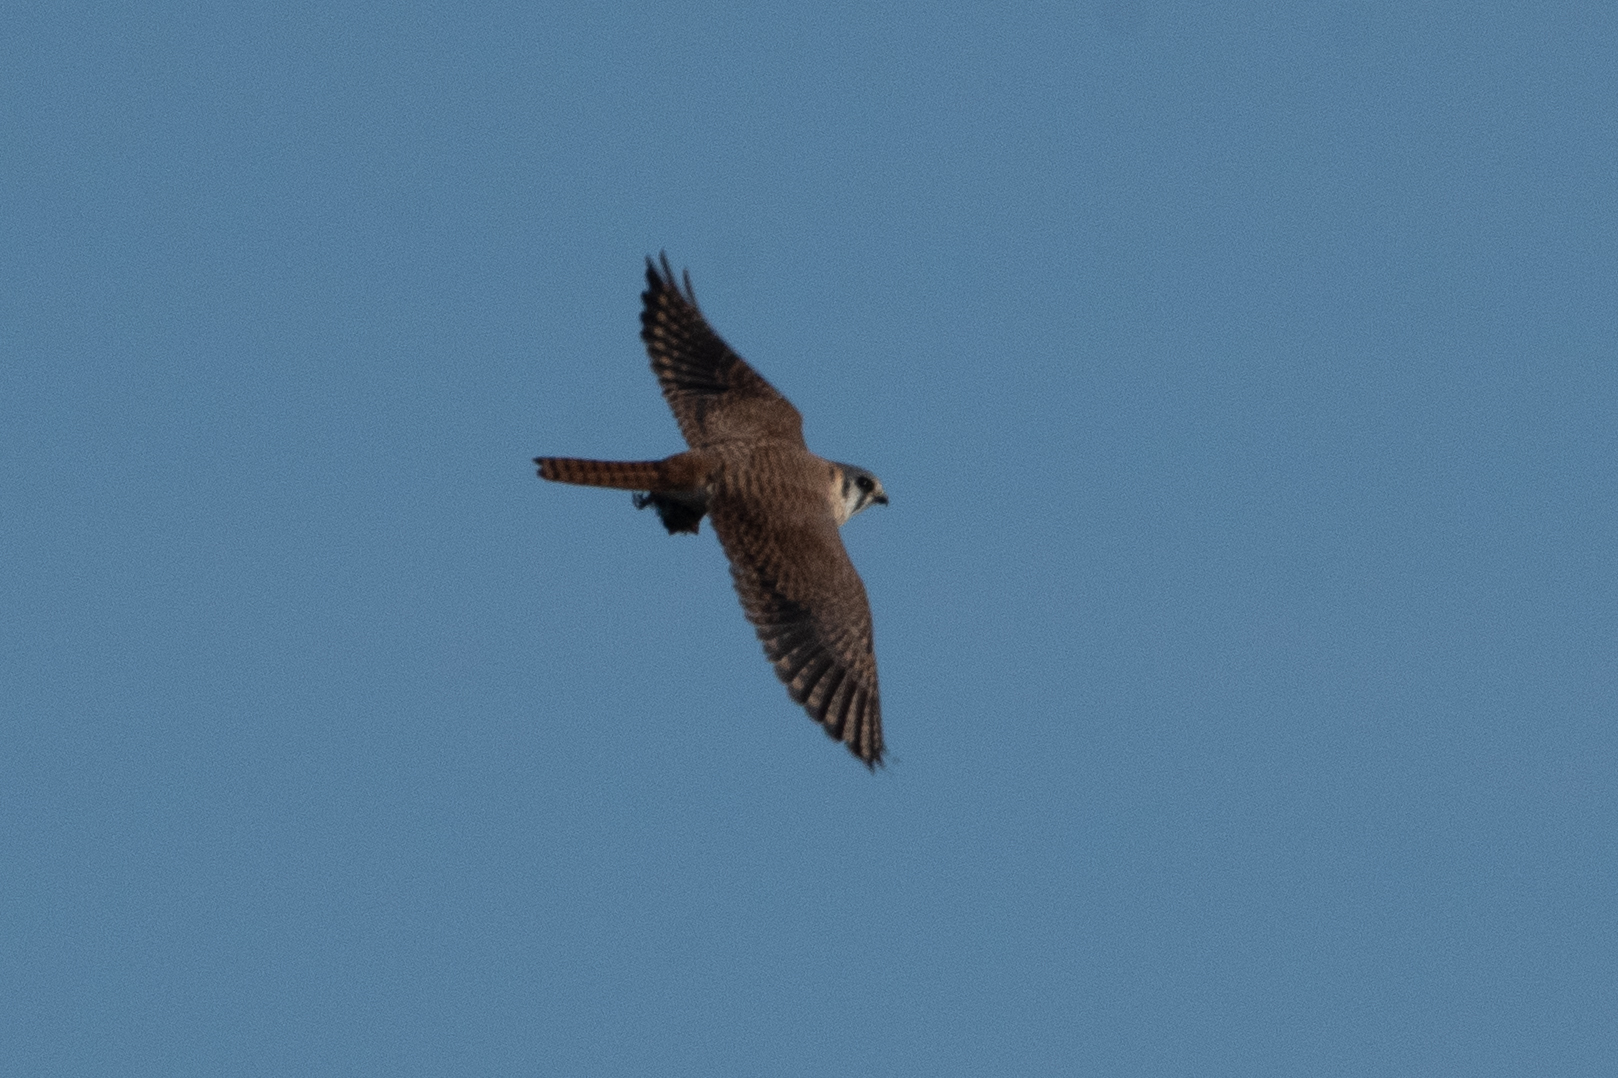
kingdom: Animalia
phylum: Chordata
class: Aves
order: Falconiformes
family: Falconidae
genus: Falco
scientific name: Falco sparverius
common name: American kestrel
